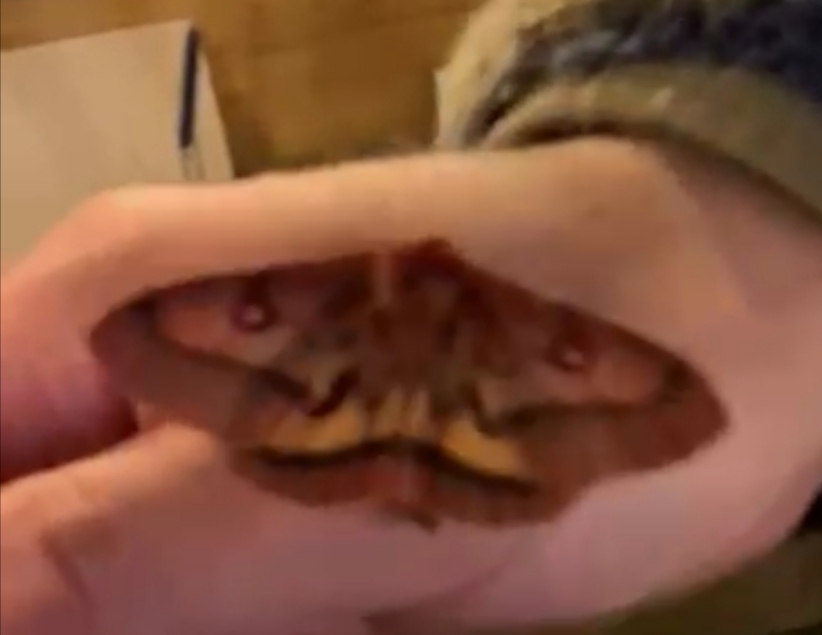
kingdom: Animalia
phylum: Arthropoda
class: Insecta
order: Lepidoptera
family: Saturniidae
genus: Adetomeris
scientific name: Adetomeris erythrops
